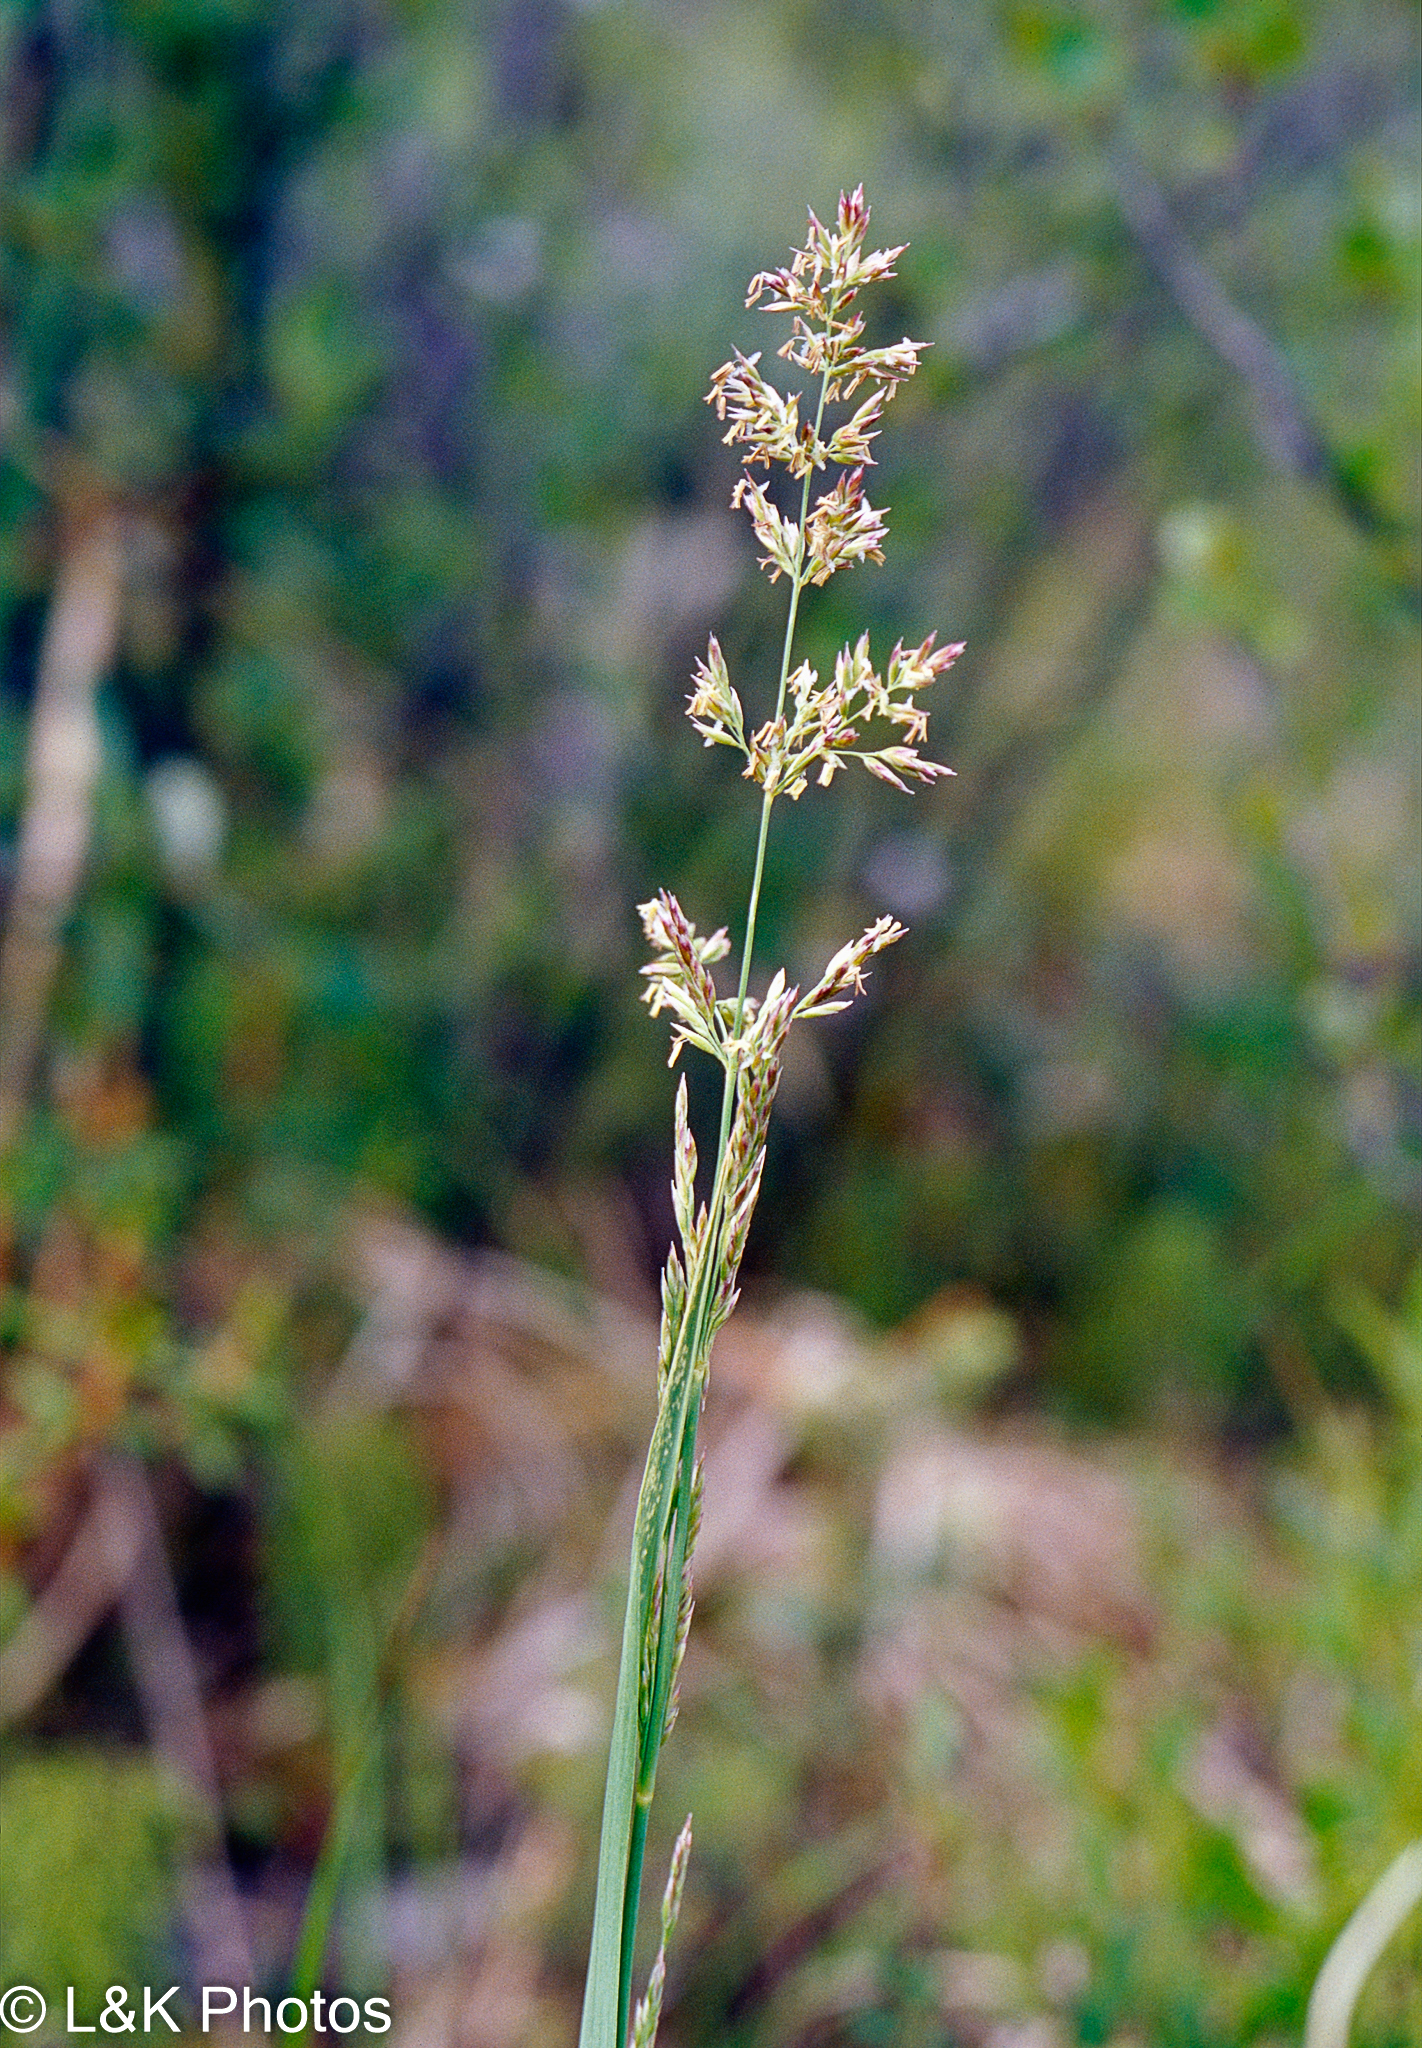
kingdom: Plantae
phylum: Tracheophyta
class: Liliopsida
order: Poales
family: Poaceae
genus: Arctagrostis
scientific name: Arctagrostis arundinacea
